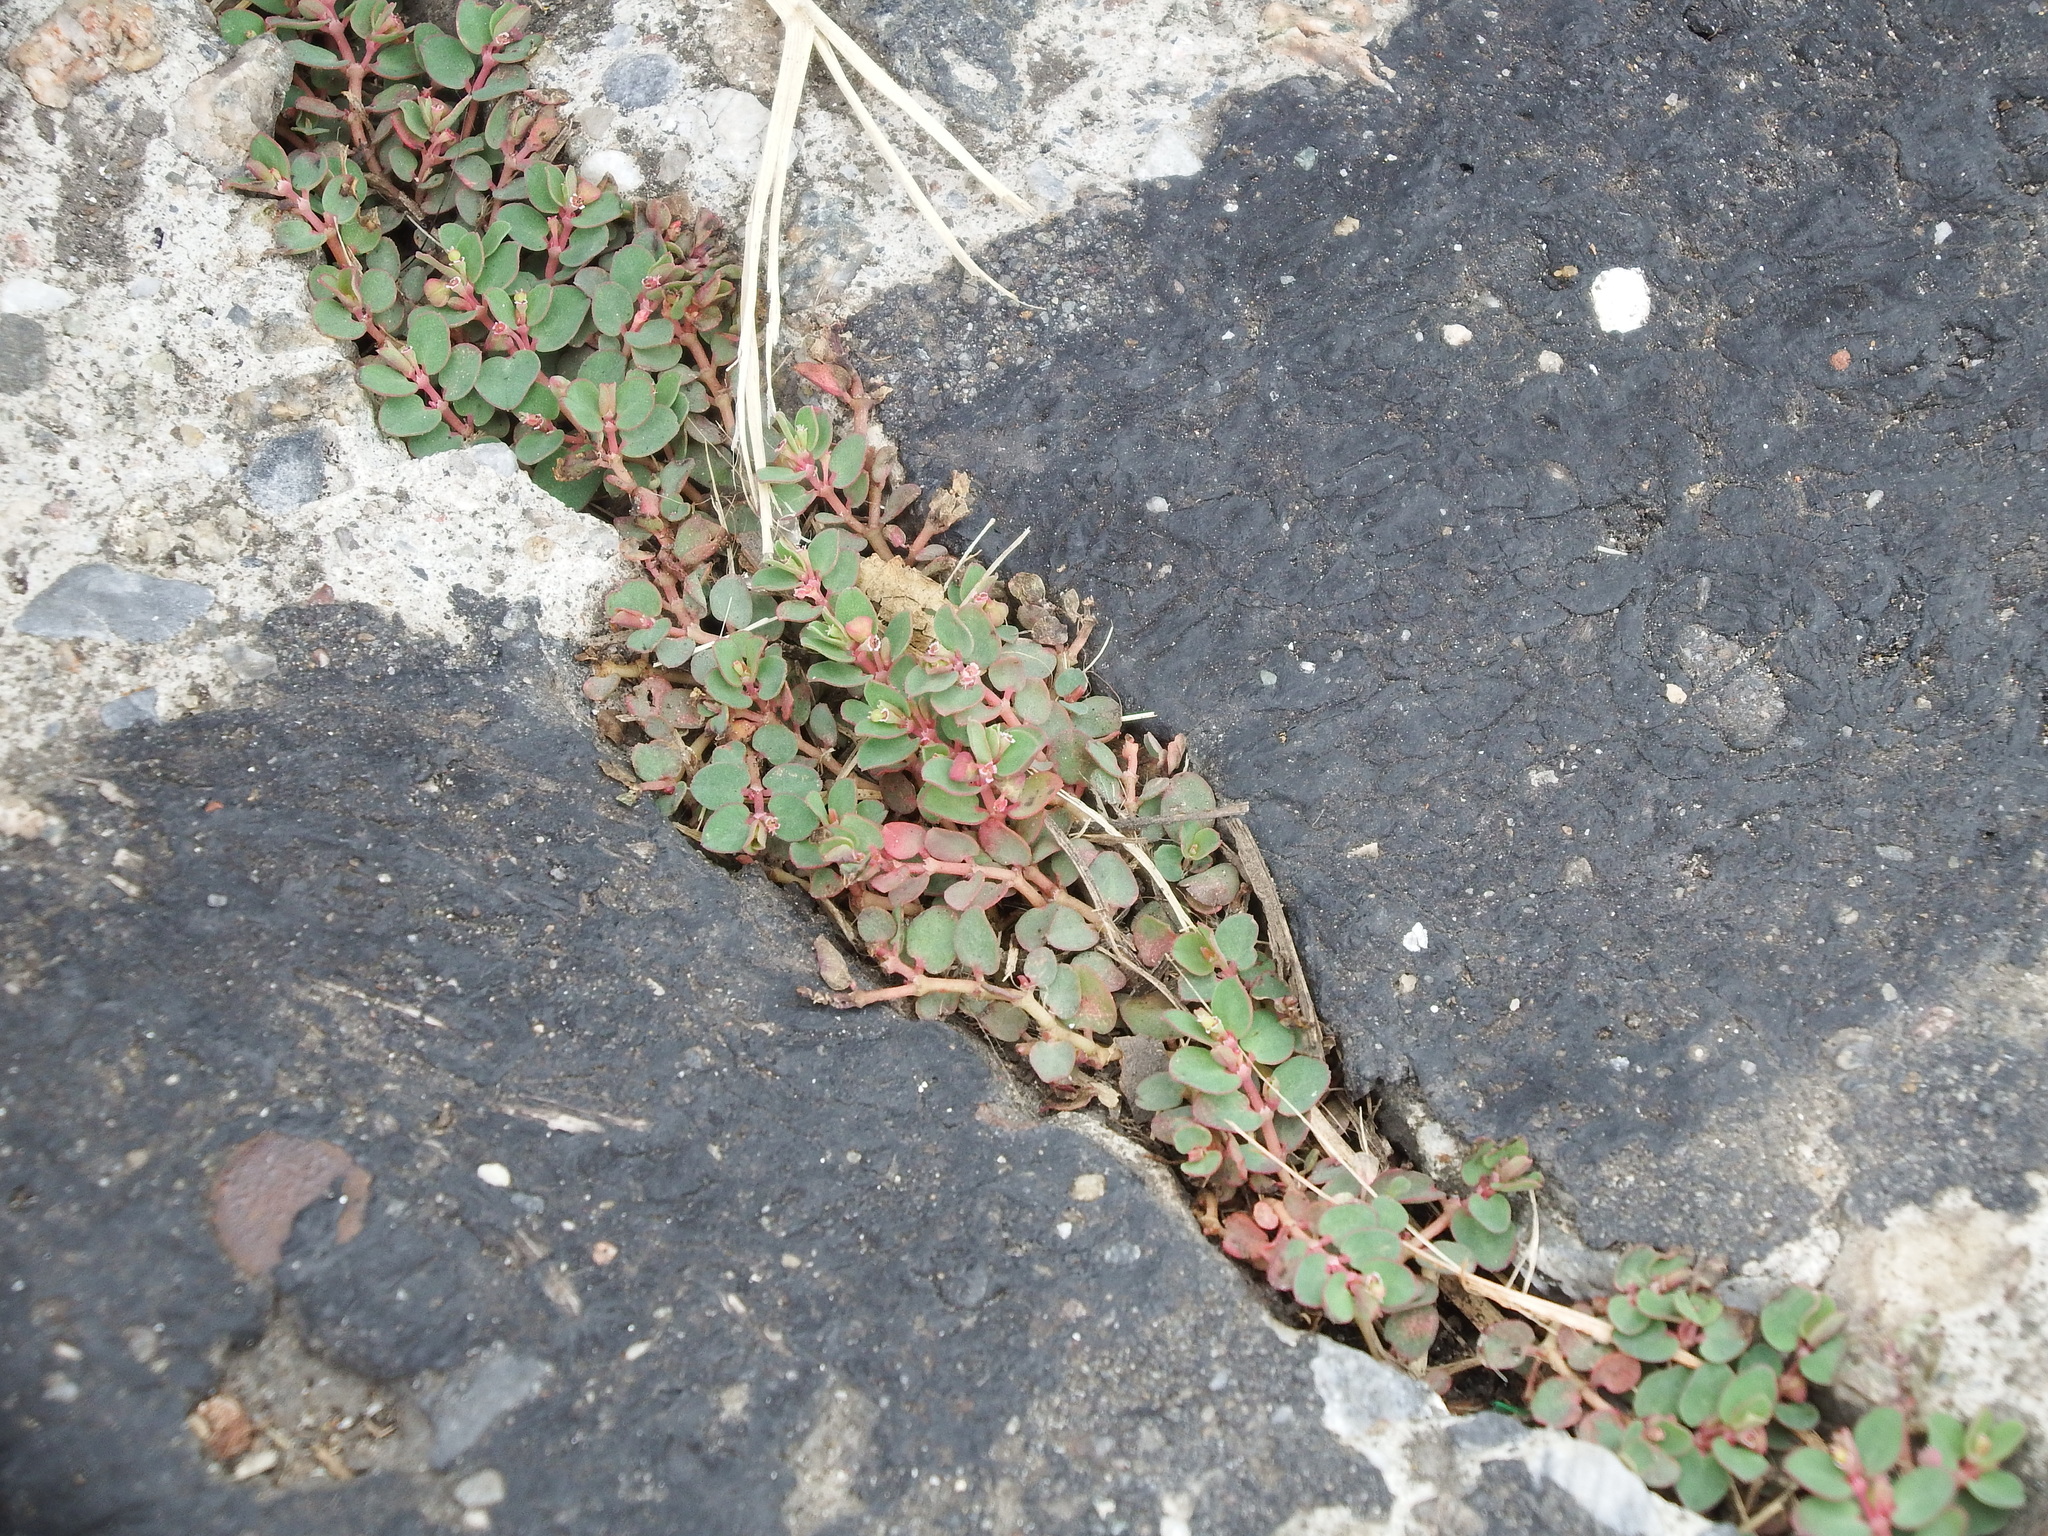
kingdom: Plantae
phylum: Tracheophyta
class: Magnoliopsida
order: Malpighiales
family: Euphorbiaceae
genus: Euphorbia
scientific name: Euphorbia serpens
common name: Matted sandmat
